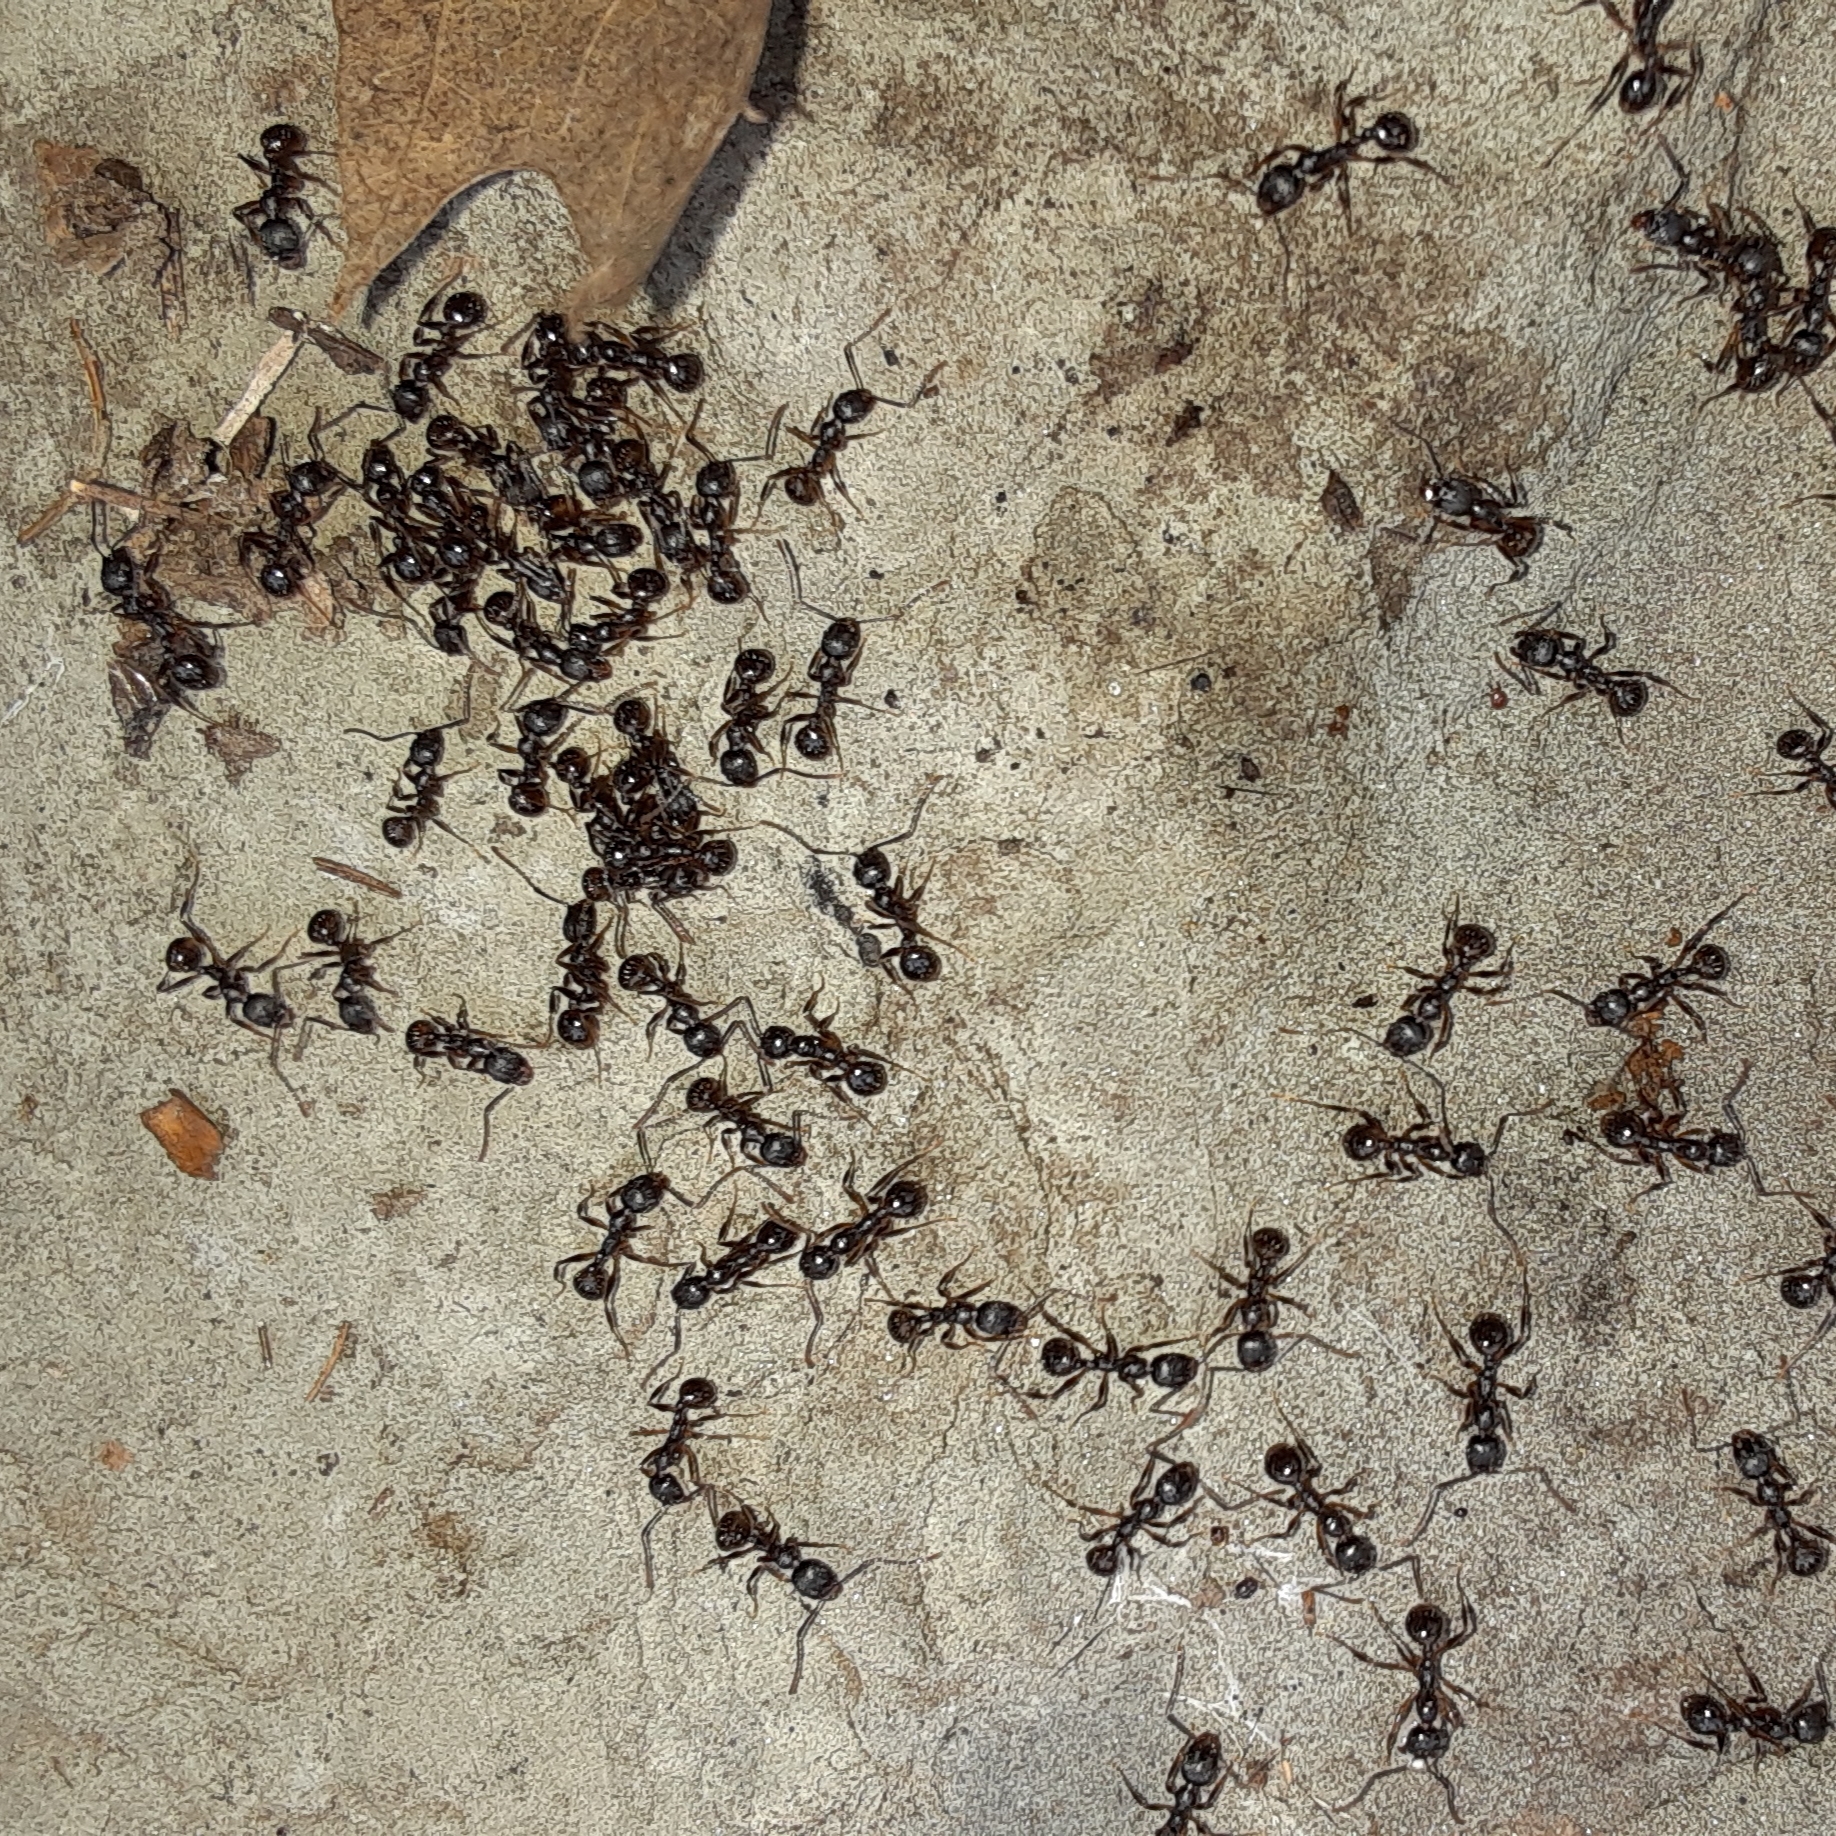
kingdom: Animalia
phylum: Arthropoda
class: Insecta
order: Hymenoptera
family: Formicidae
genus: Aphaenogaster
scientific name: Aphaenogaster picea
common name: Pitch-black collared ant
